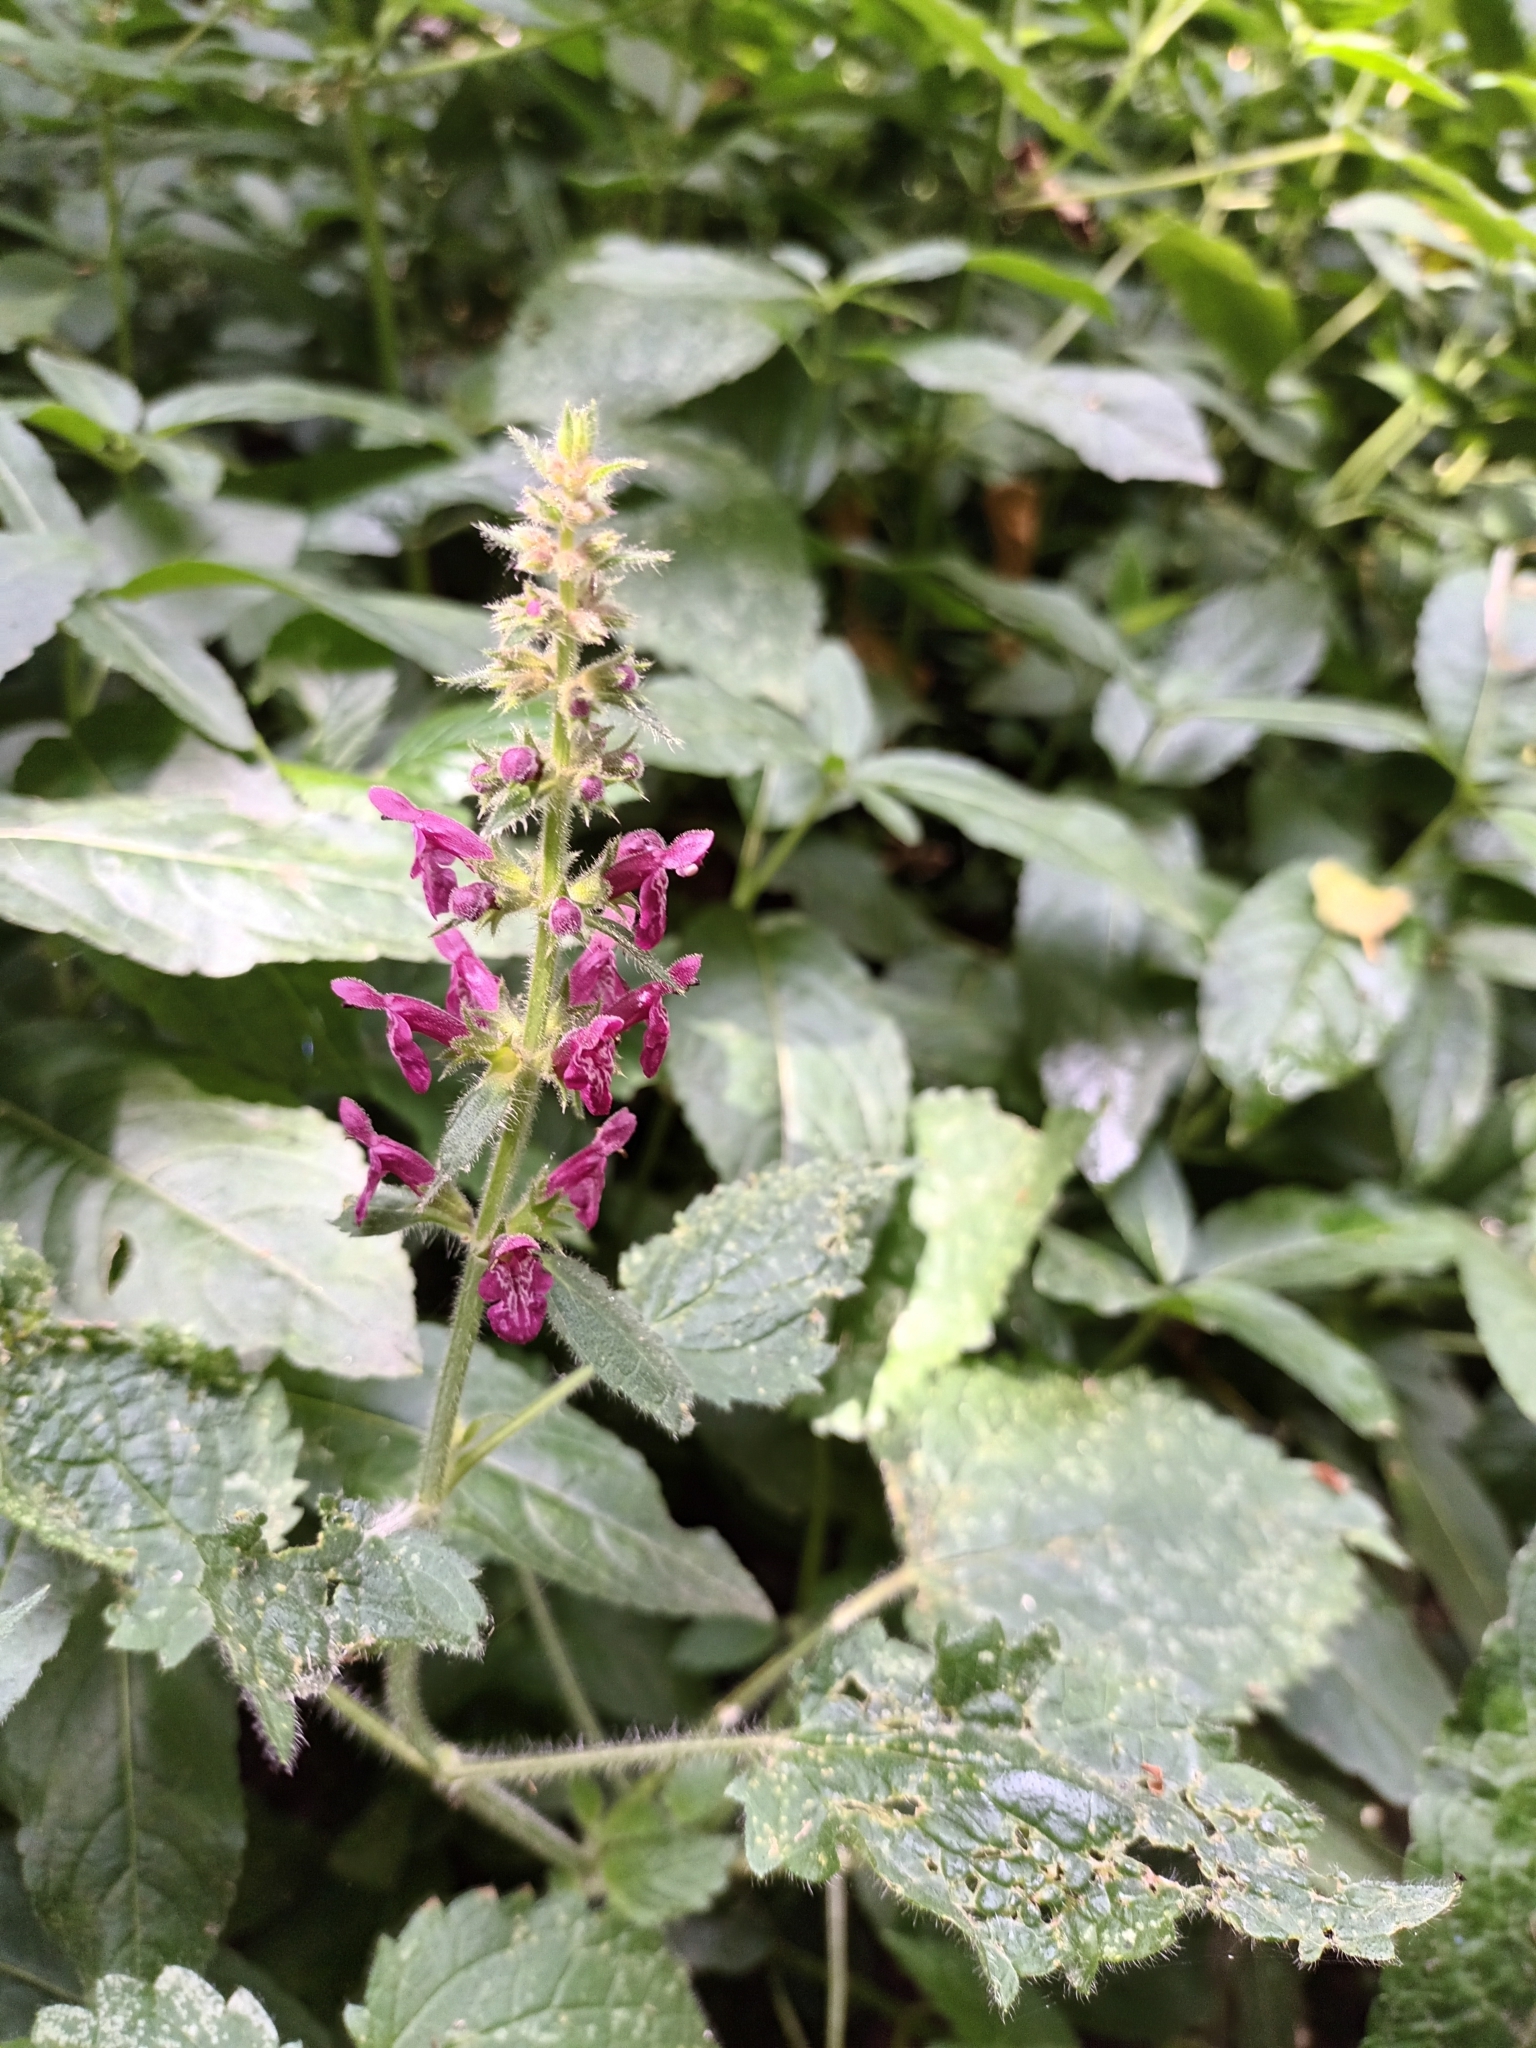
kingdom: Plantae
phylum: Tracheophyta
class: Magnoliopsida
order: Lamiales
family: Lamiaceae
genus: Stachys
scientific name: Stachys sylvatica
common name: Hedge woundwort
